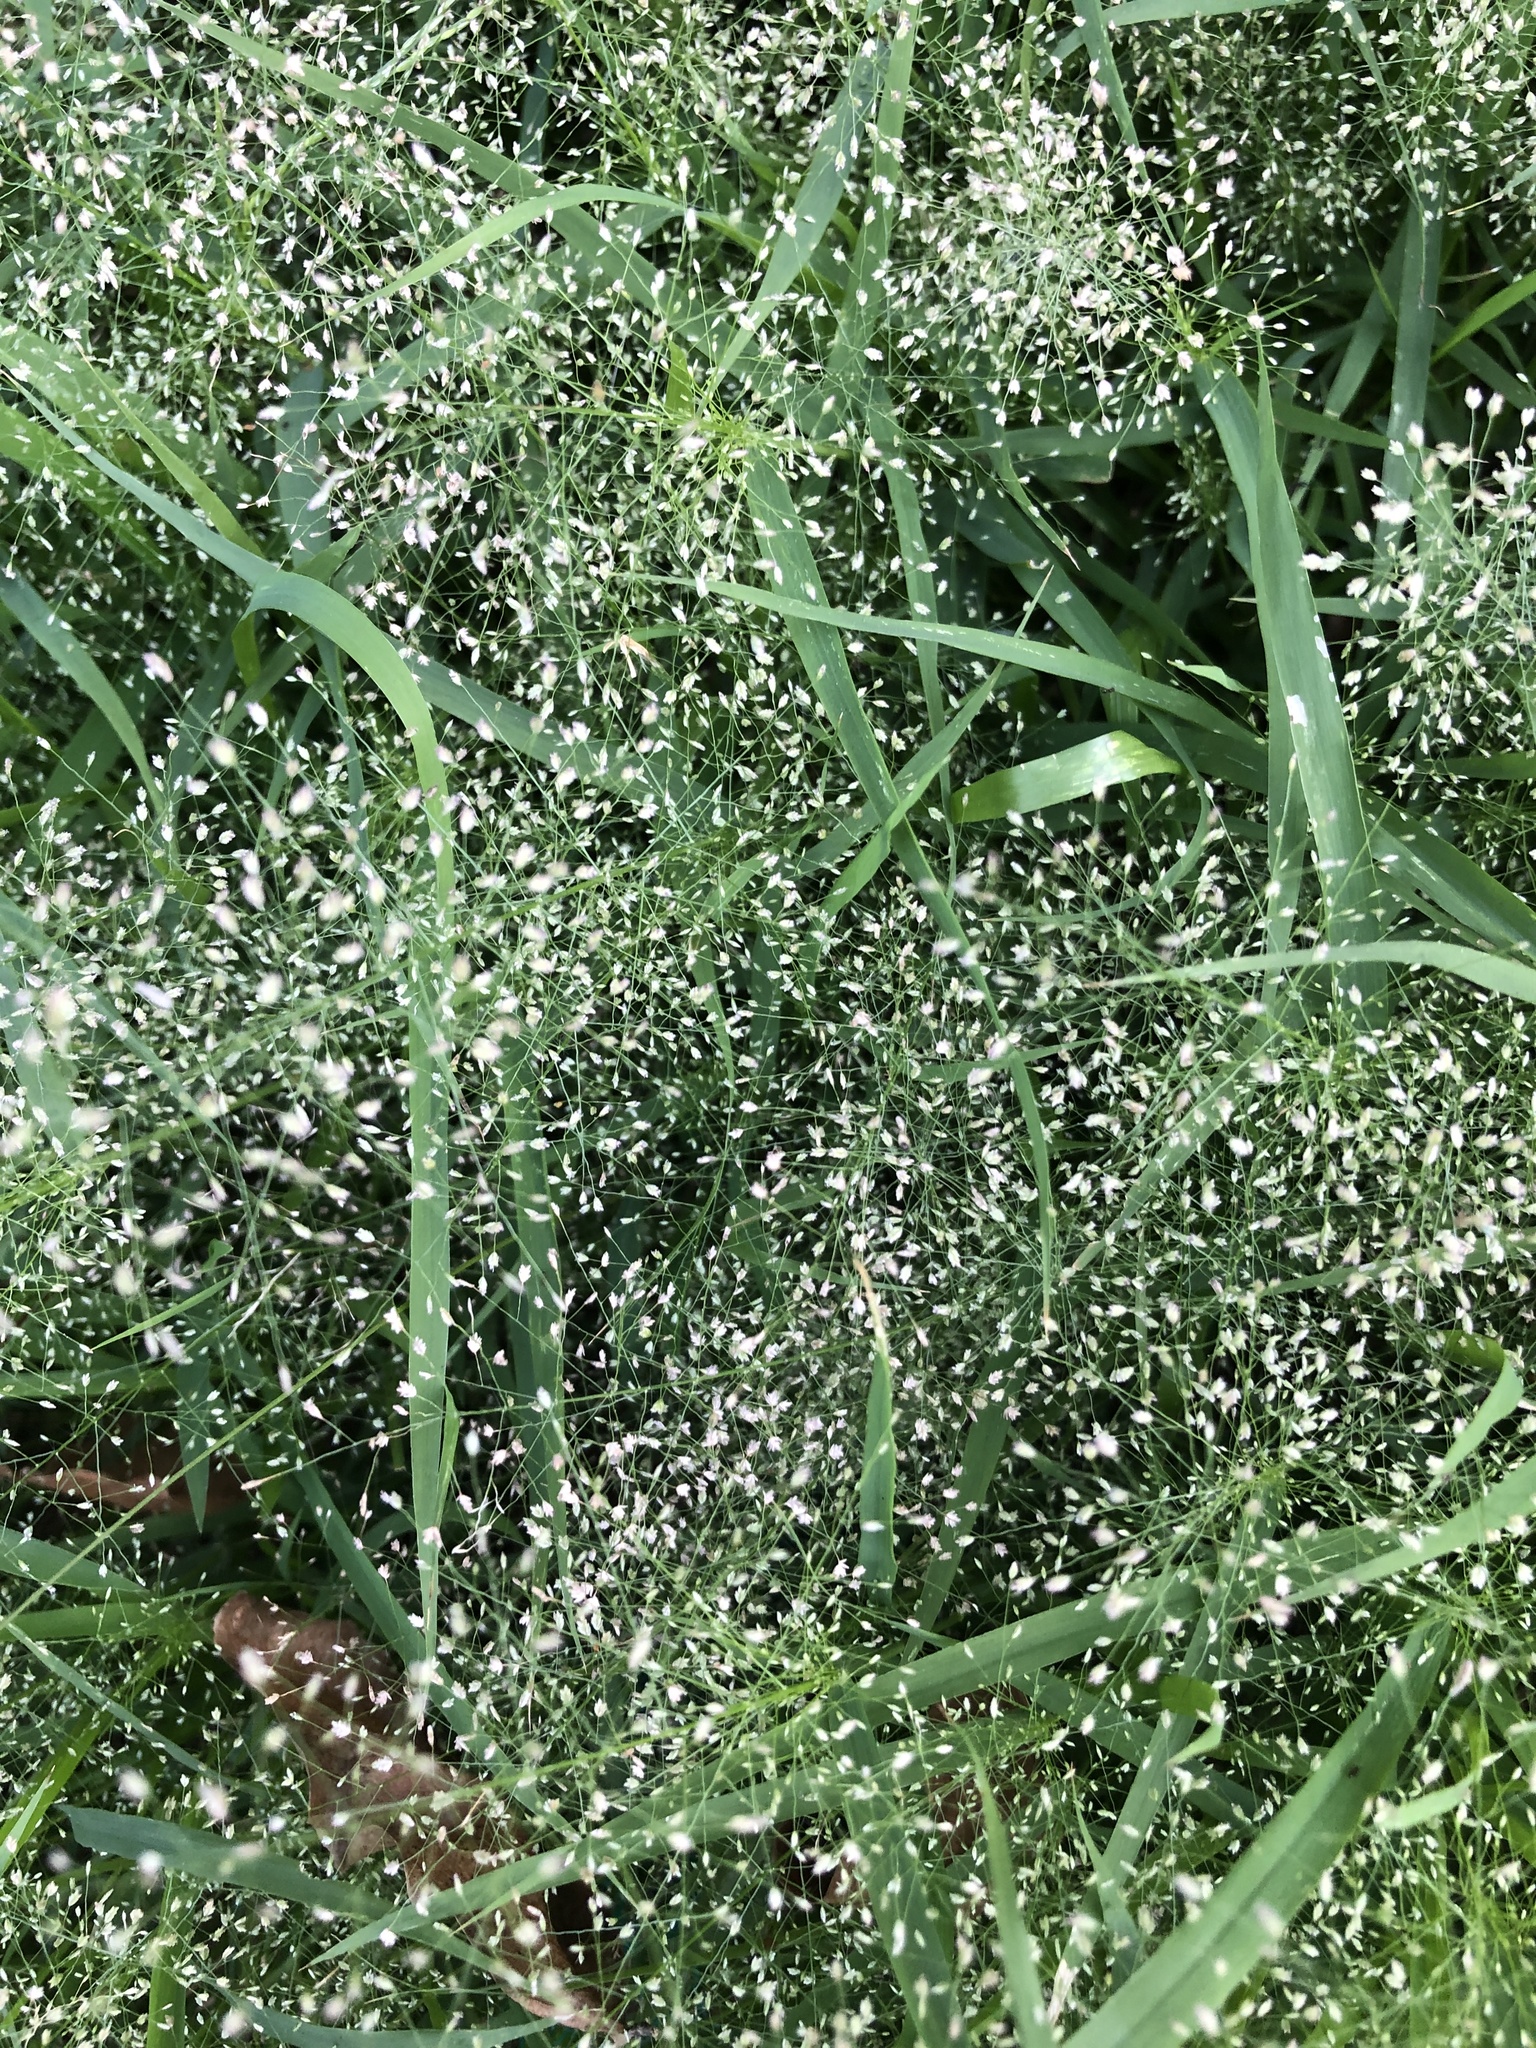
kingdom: Plantae
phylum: Tracheophyta
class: Liliopsida
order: Poales
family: Poaceae
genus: Eragrostis
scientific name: Eragrostis tenella
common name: Japanese lovegrass
